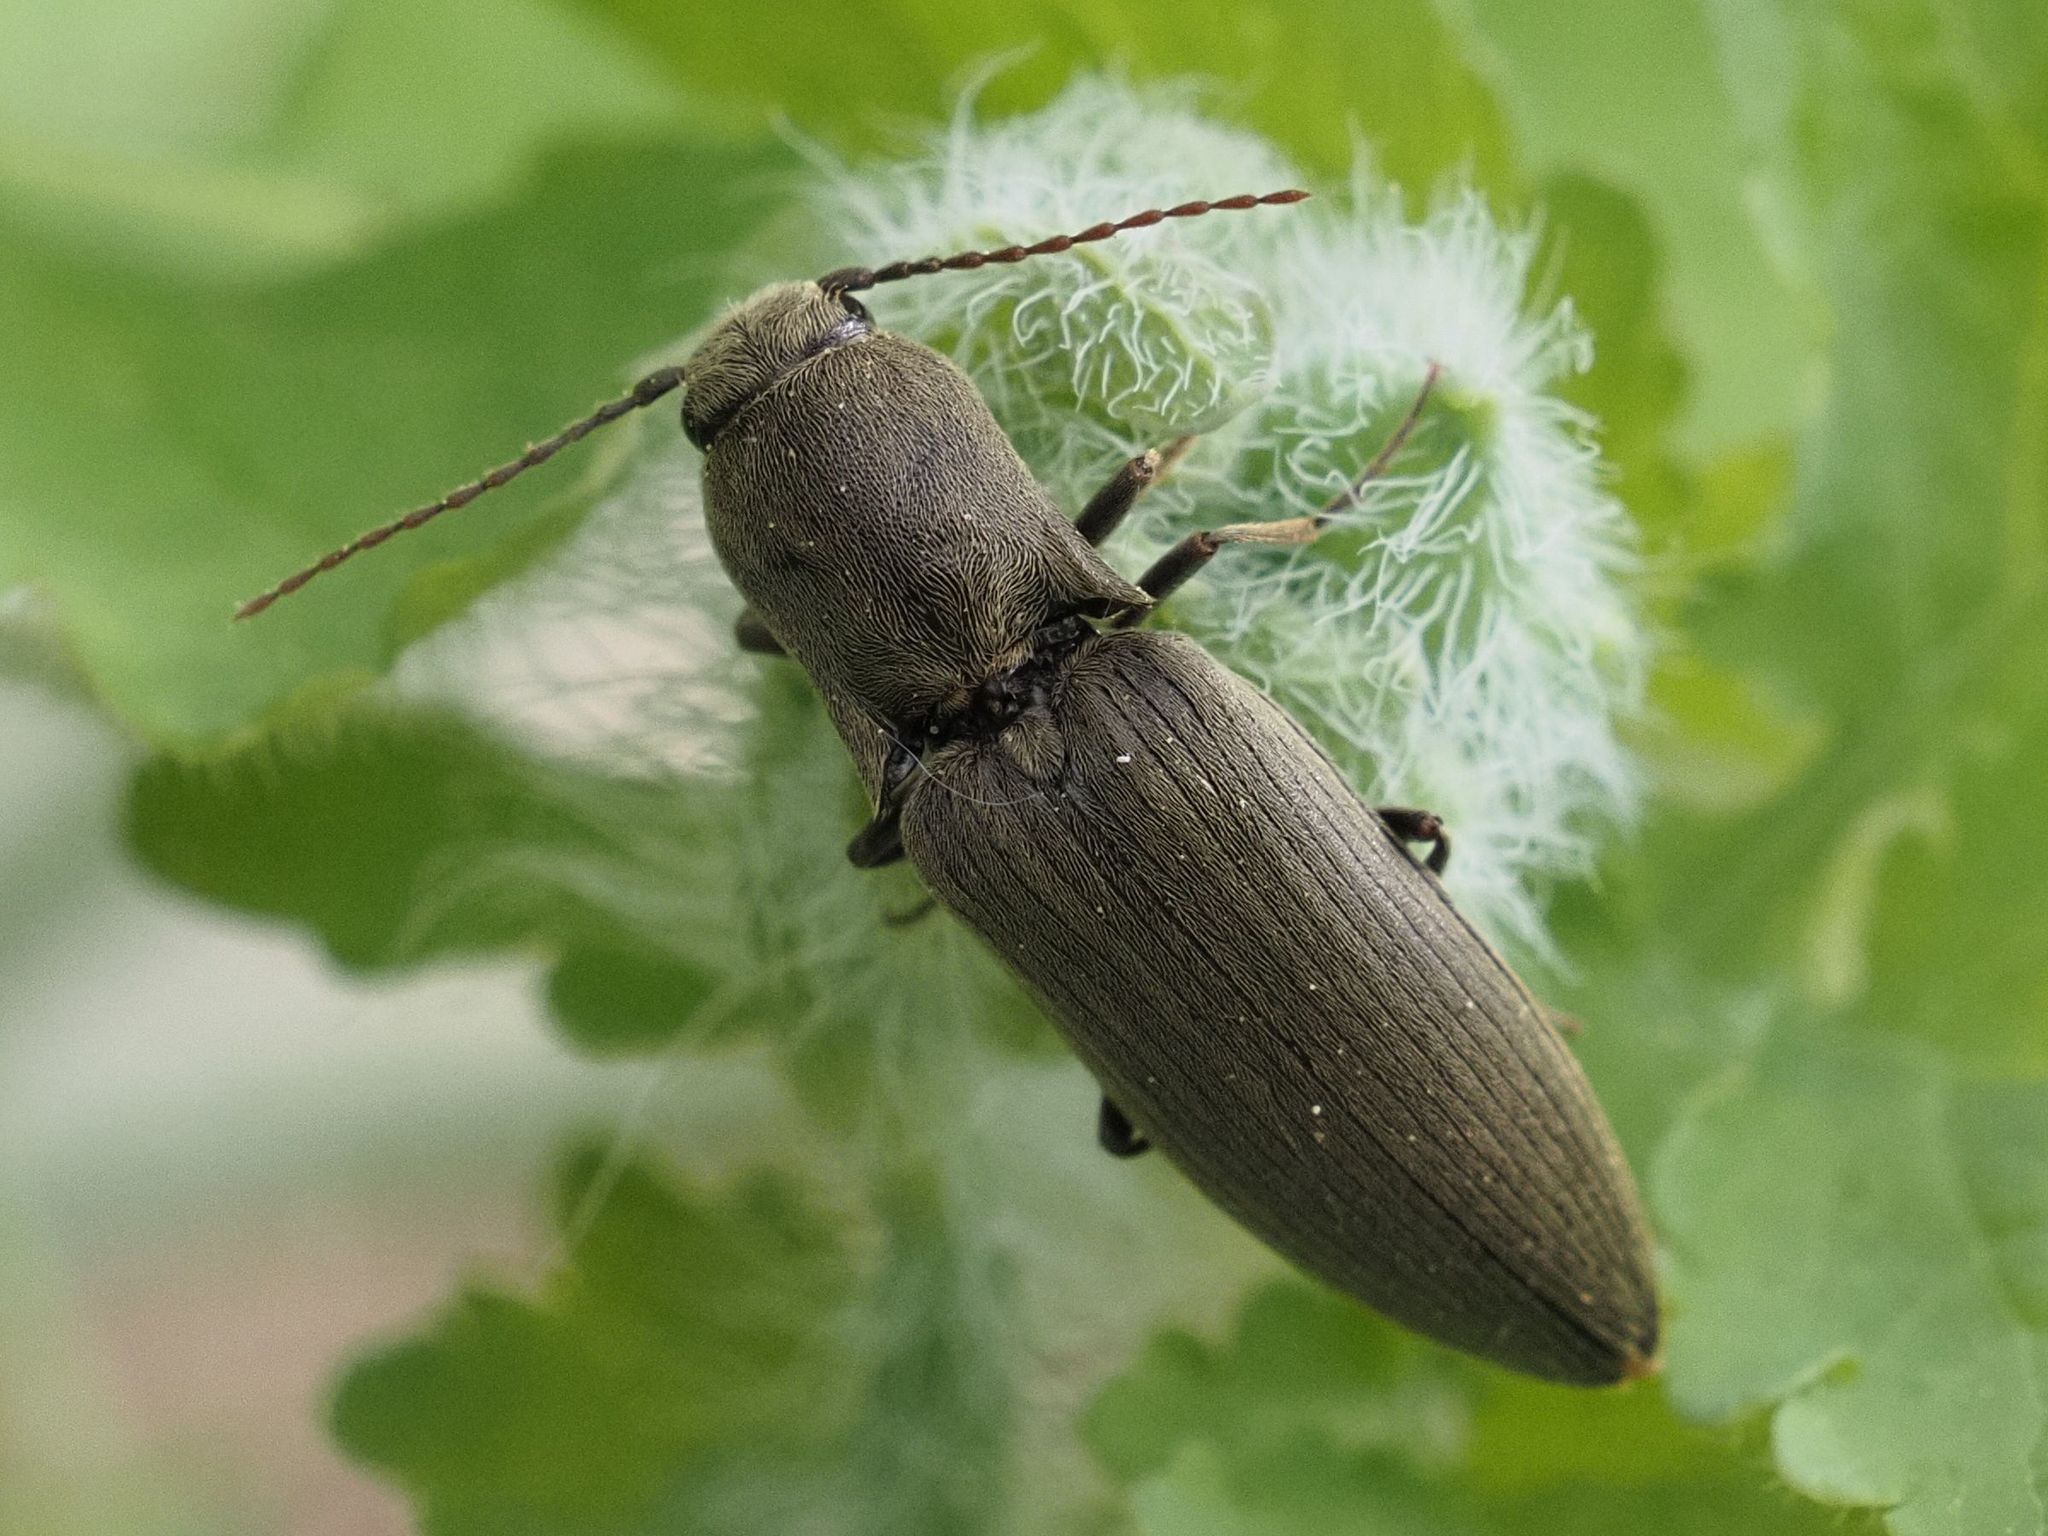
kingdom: Animalia
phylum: Arthropoda
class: Insecta
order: Coleoptera
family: Elateridae
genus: Agriotes
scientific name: Agriotes pilosellus
